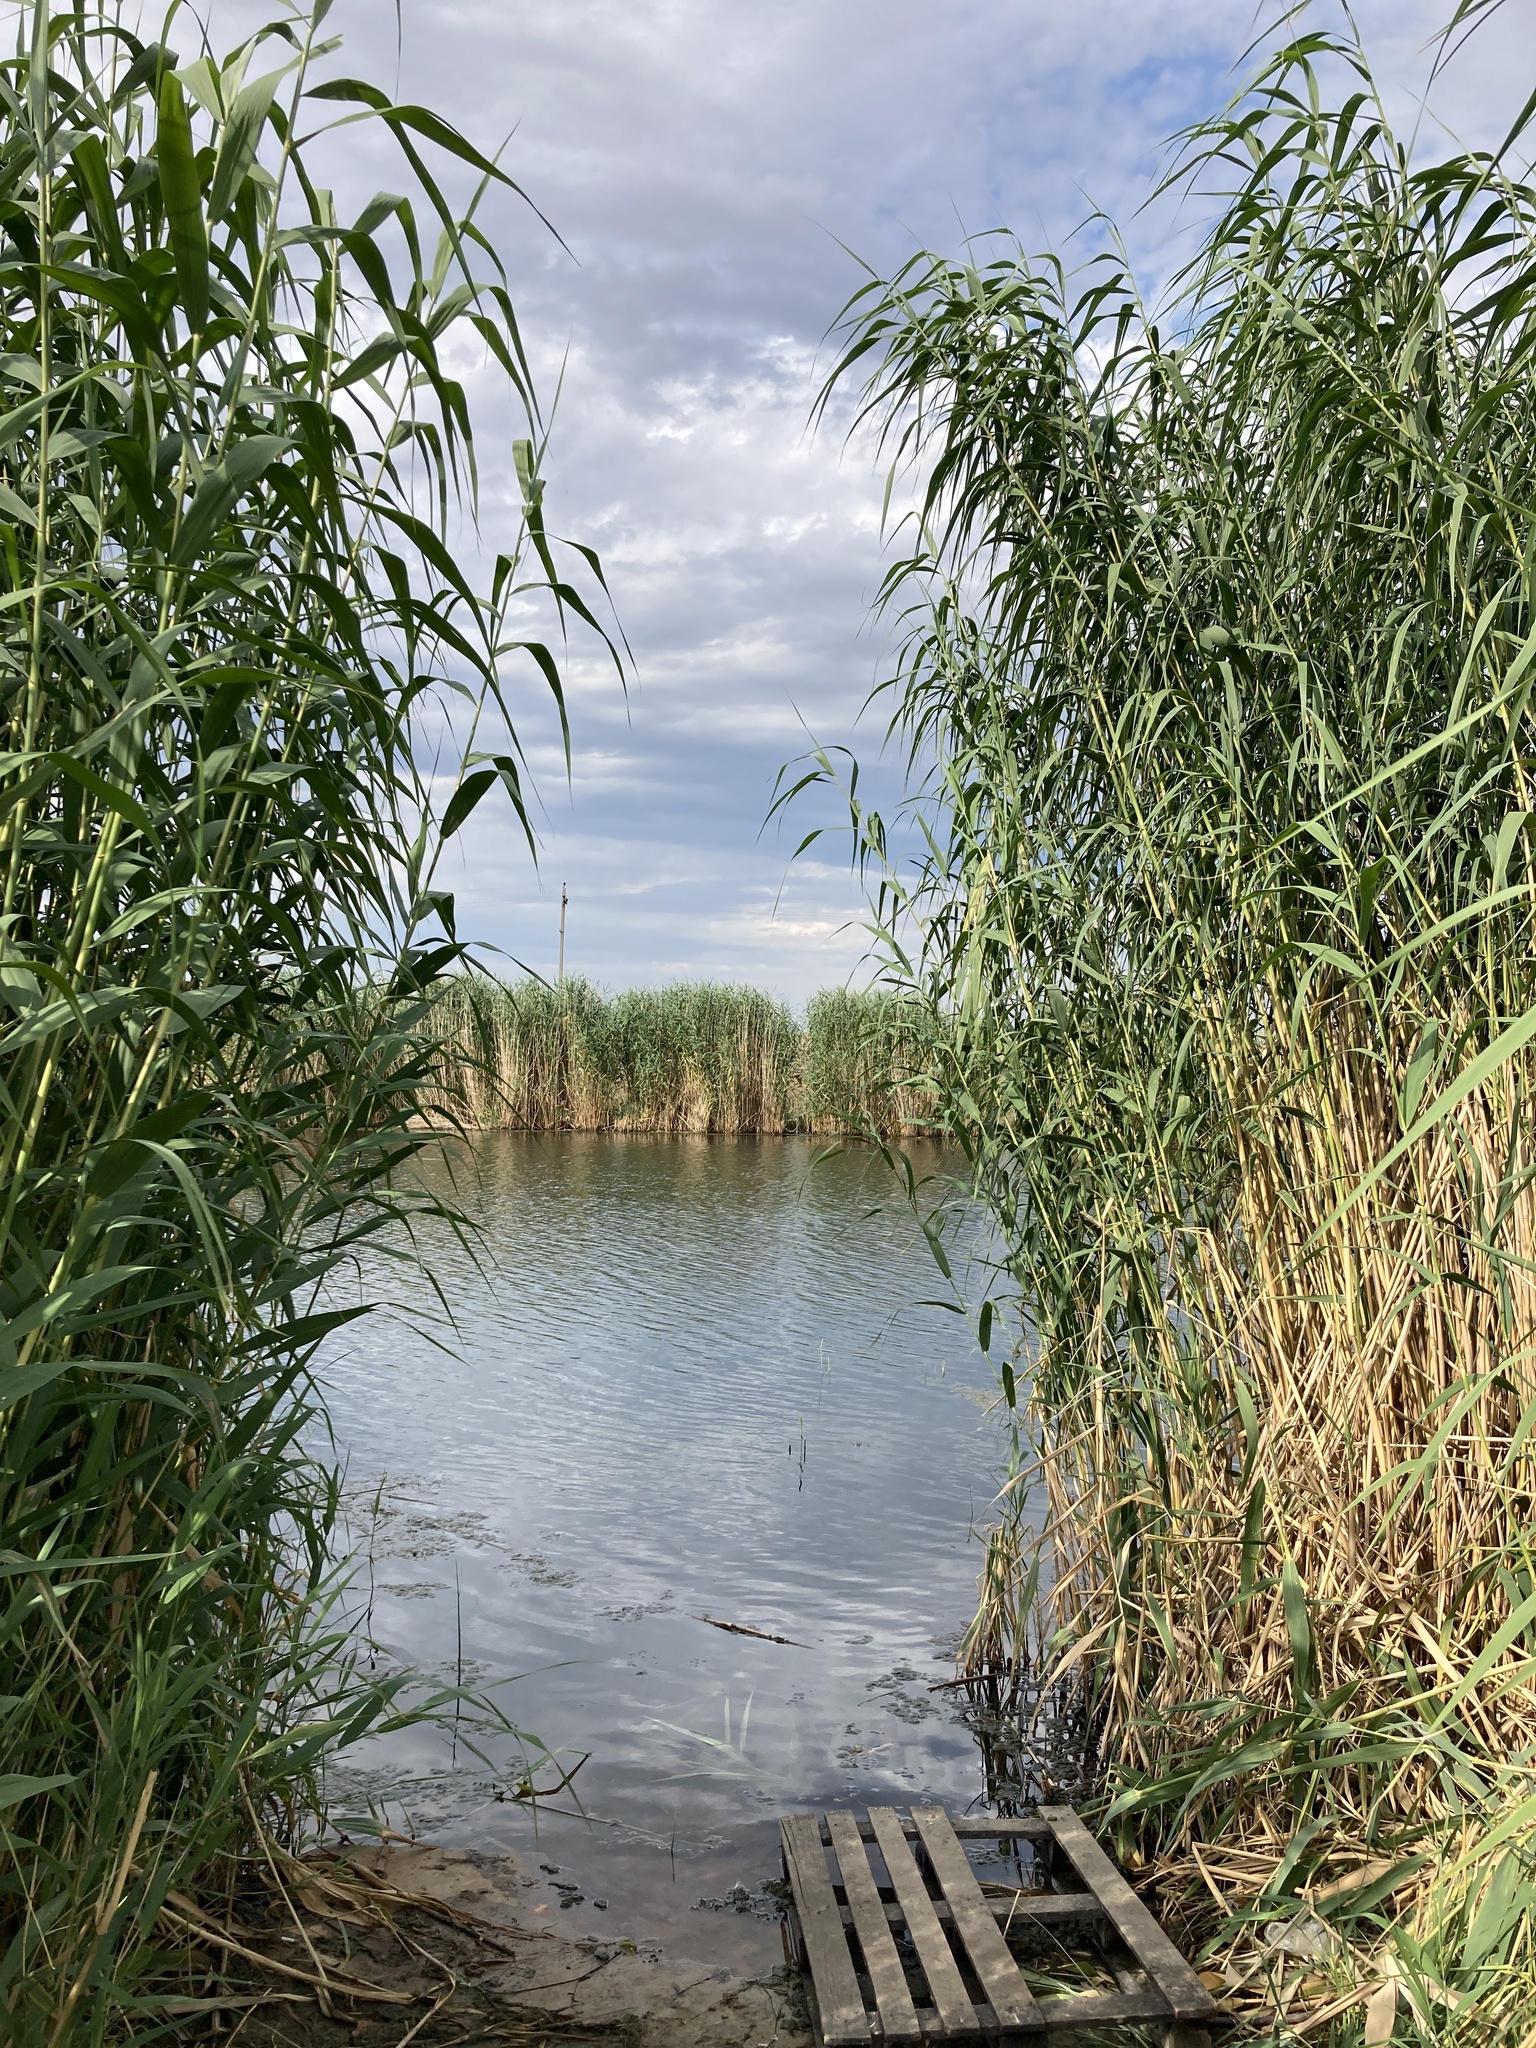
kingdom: Plantae
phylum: Tracheophyta
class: Liliopsida
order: Poales
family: Poaceae
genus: Phragmites
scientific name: Phragmites australis
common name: Common reed
